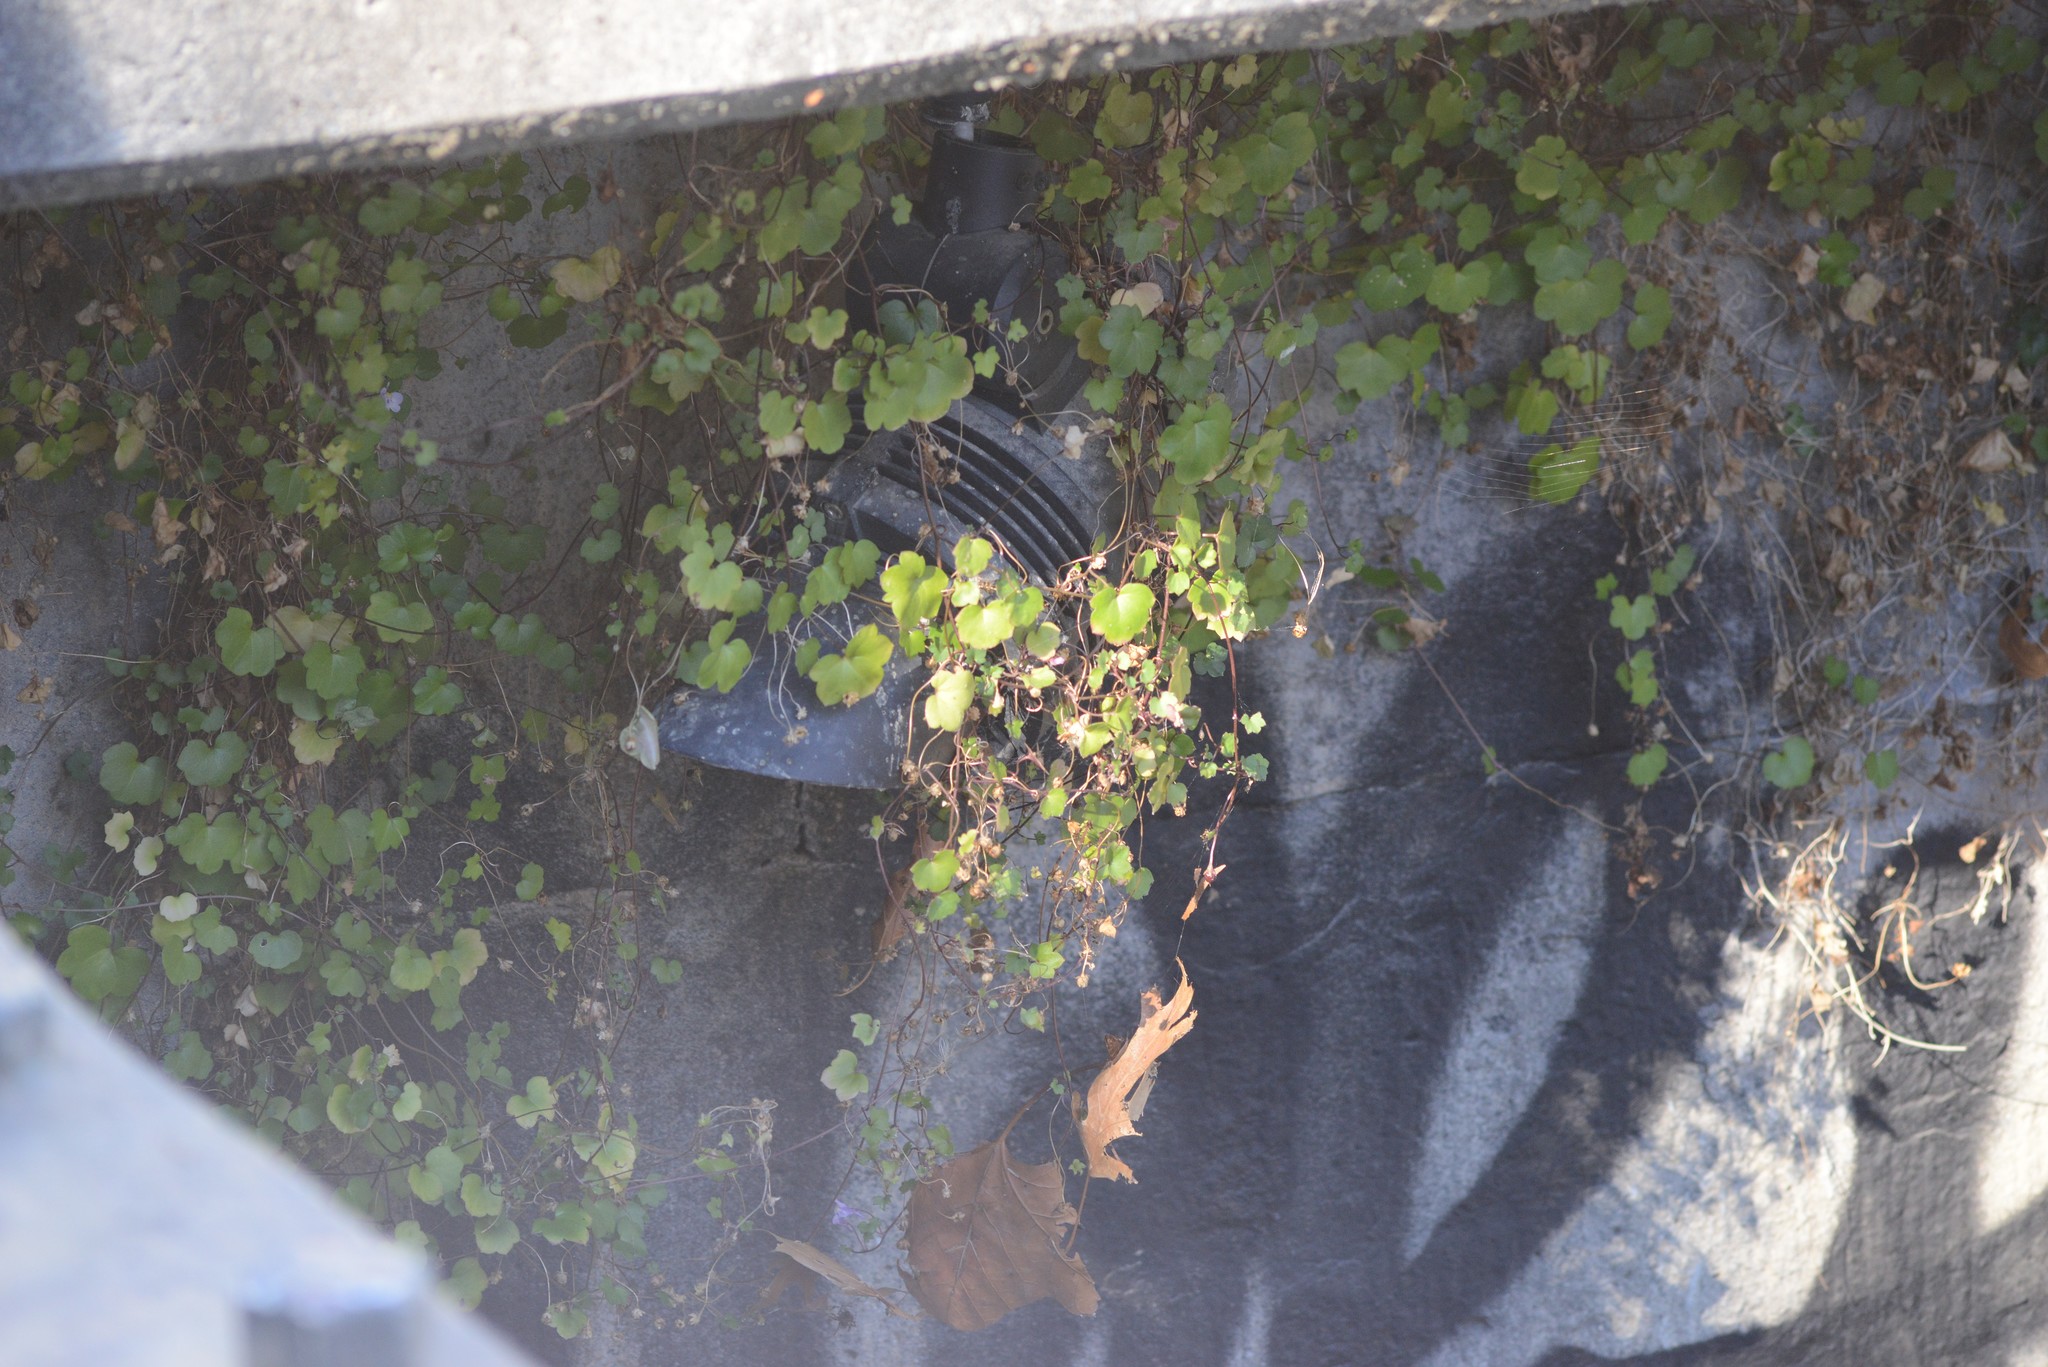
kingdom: Plantae
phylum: Tracheophyta
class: Magnoliopsida
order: Lamiales
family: Plantaginaceae
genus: Cymbalaria
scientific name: Cymbalaria muralis
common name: Ivy-leaved toadflax
